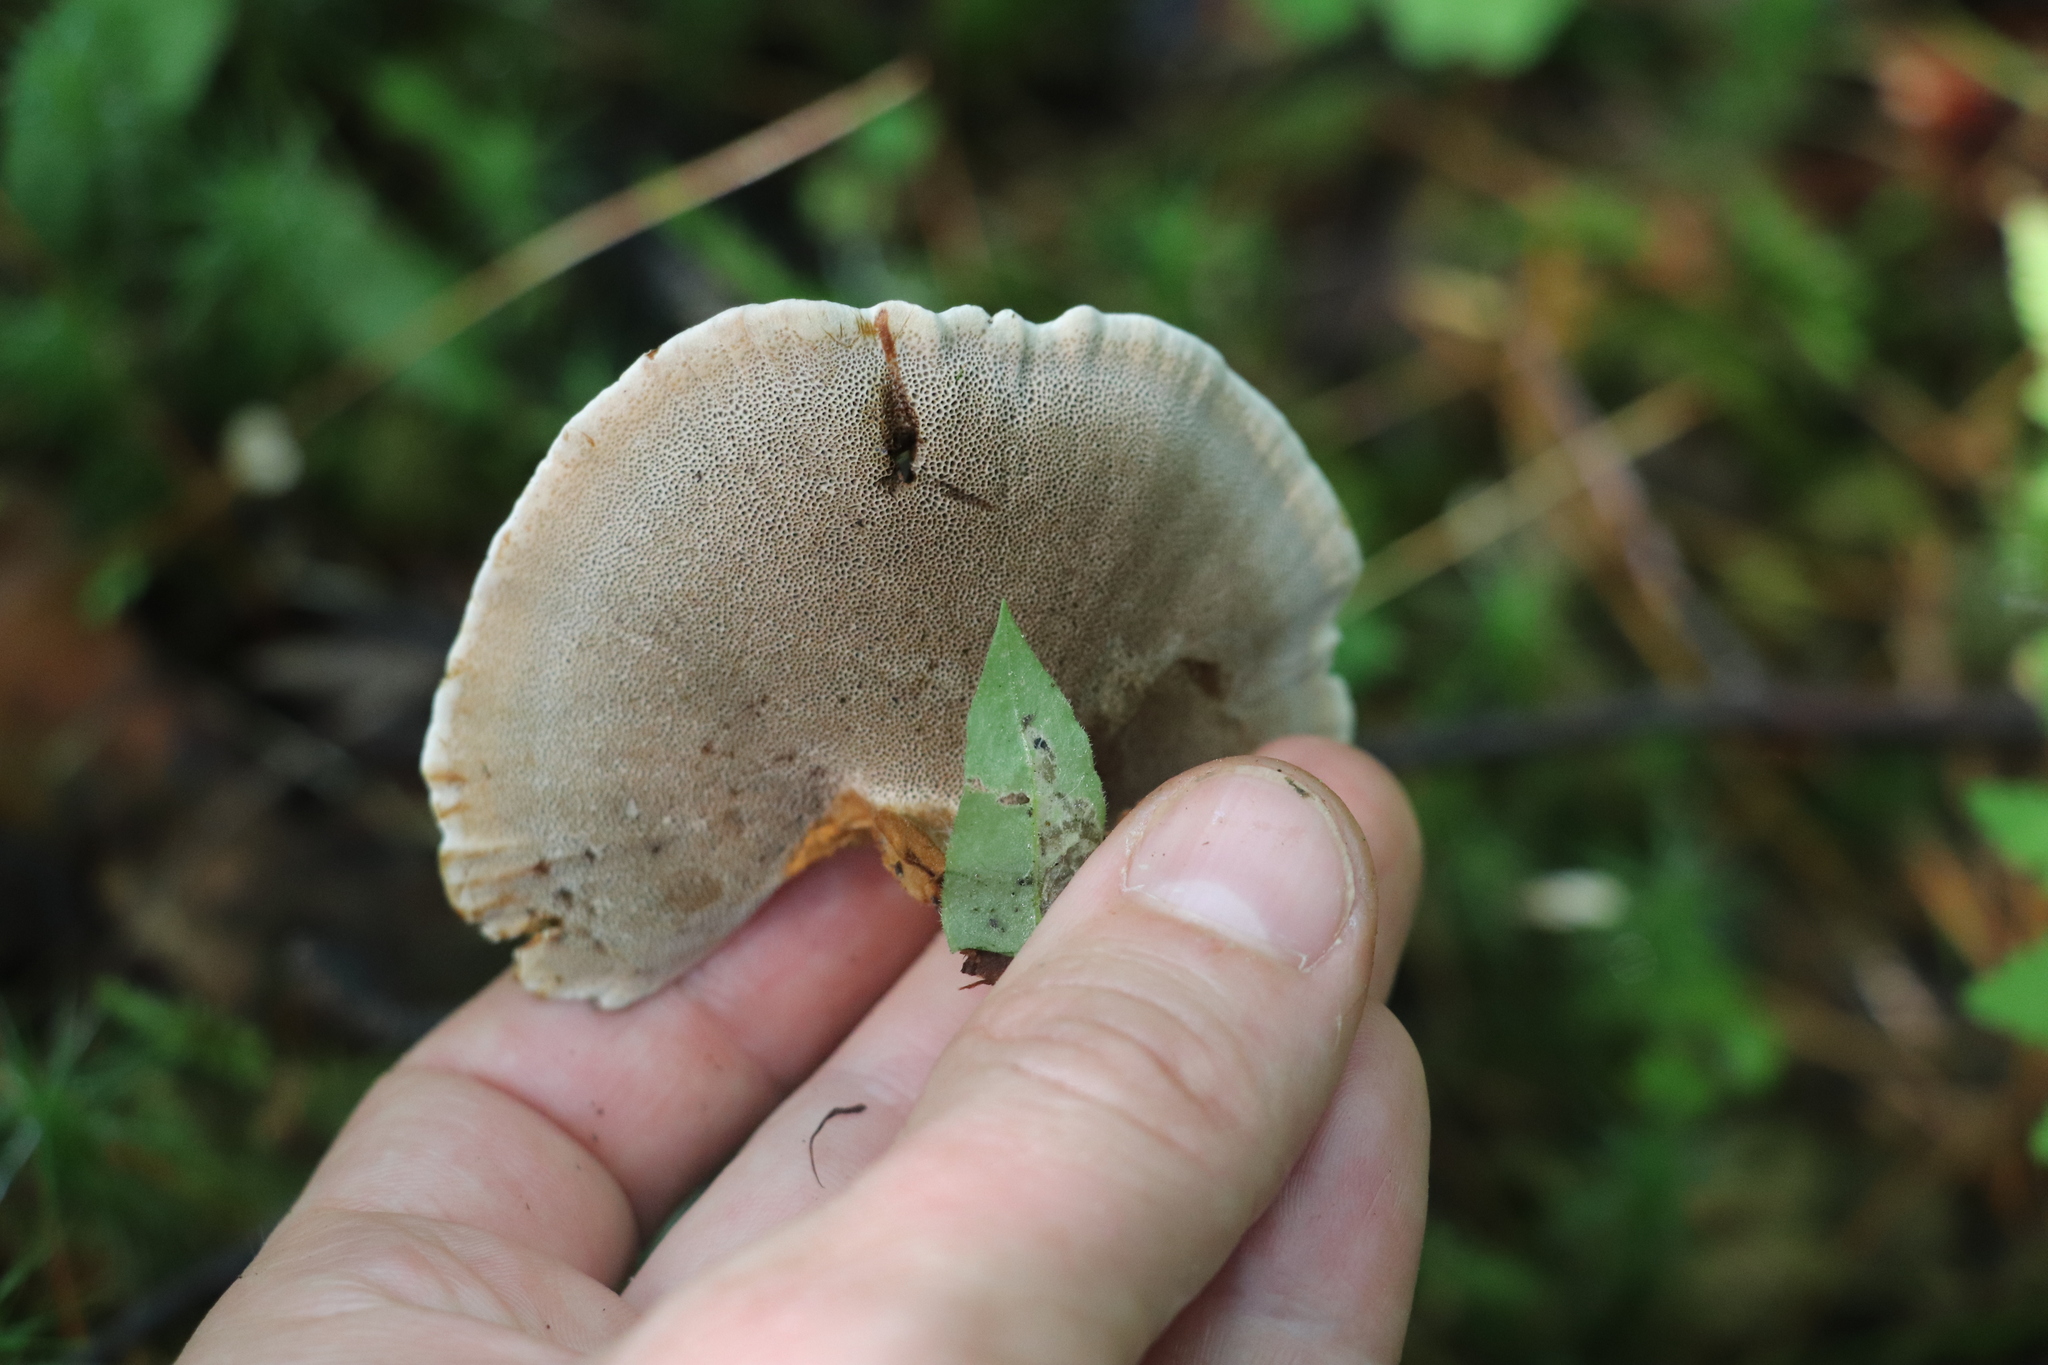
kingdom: Fungi
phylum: Basidiomycota
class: Agaricomycetes
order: Hymenochaetales
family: Hymenochaetaceae
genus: Coltricia
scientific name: Coltricia perennis
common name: Tiger's eye
